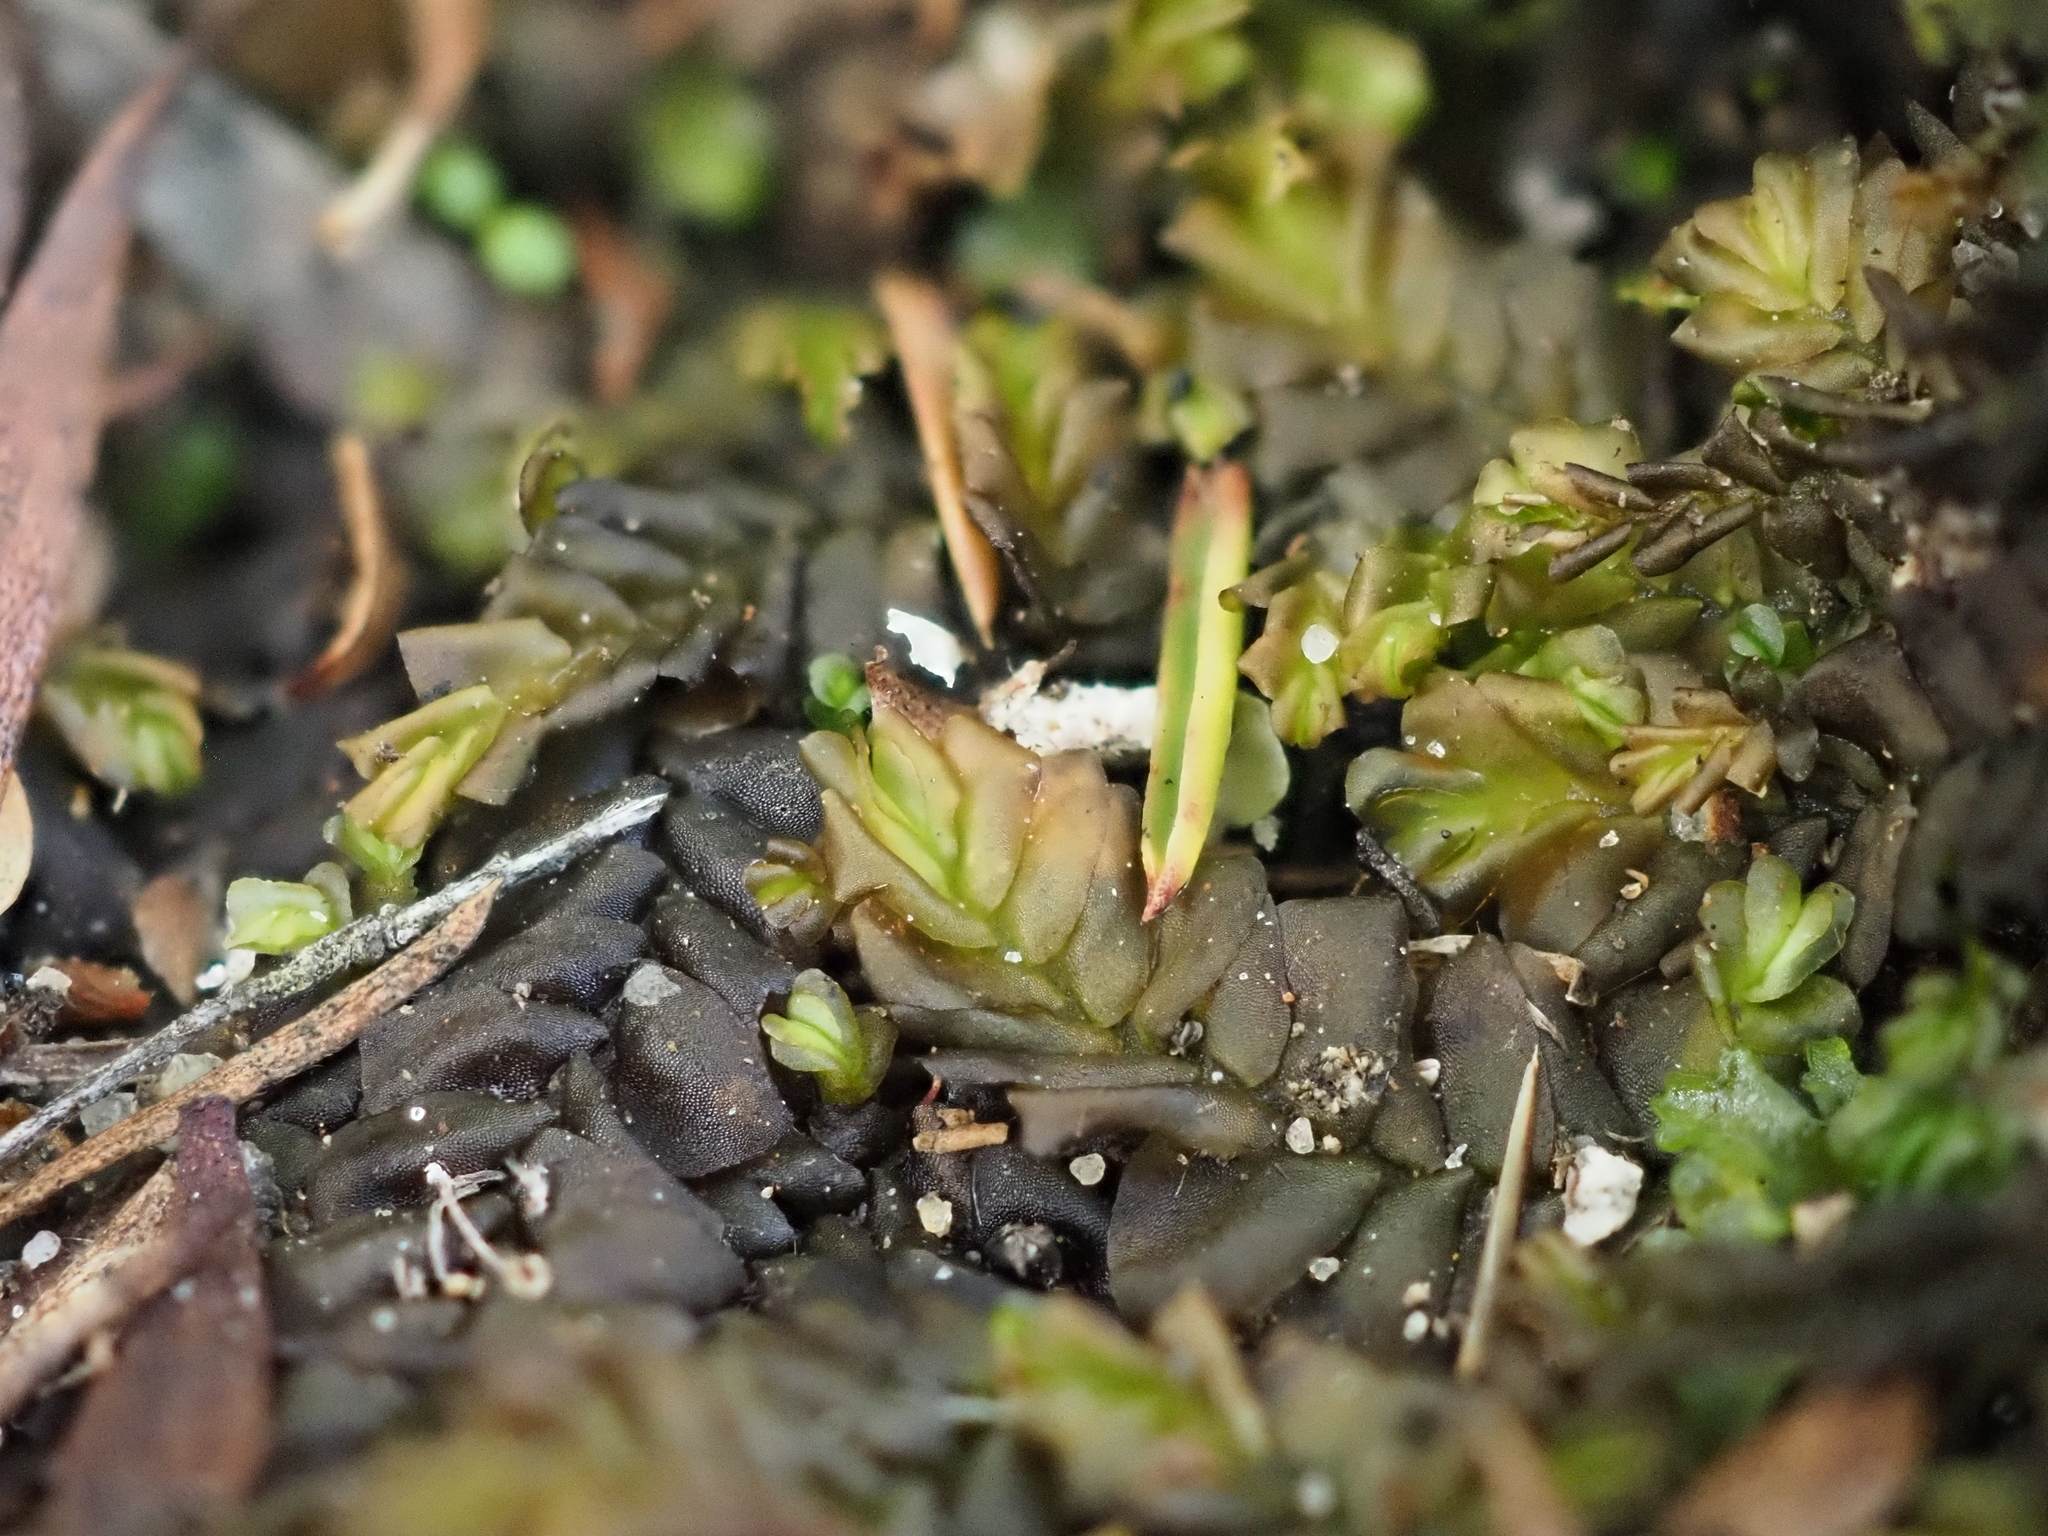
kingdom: Plantae
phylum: Marchantiophyta
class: Jungermanniopsida
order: Jungermanniales
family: Jackiellaceae
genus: Jackiella
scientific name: Jackiella curvata
